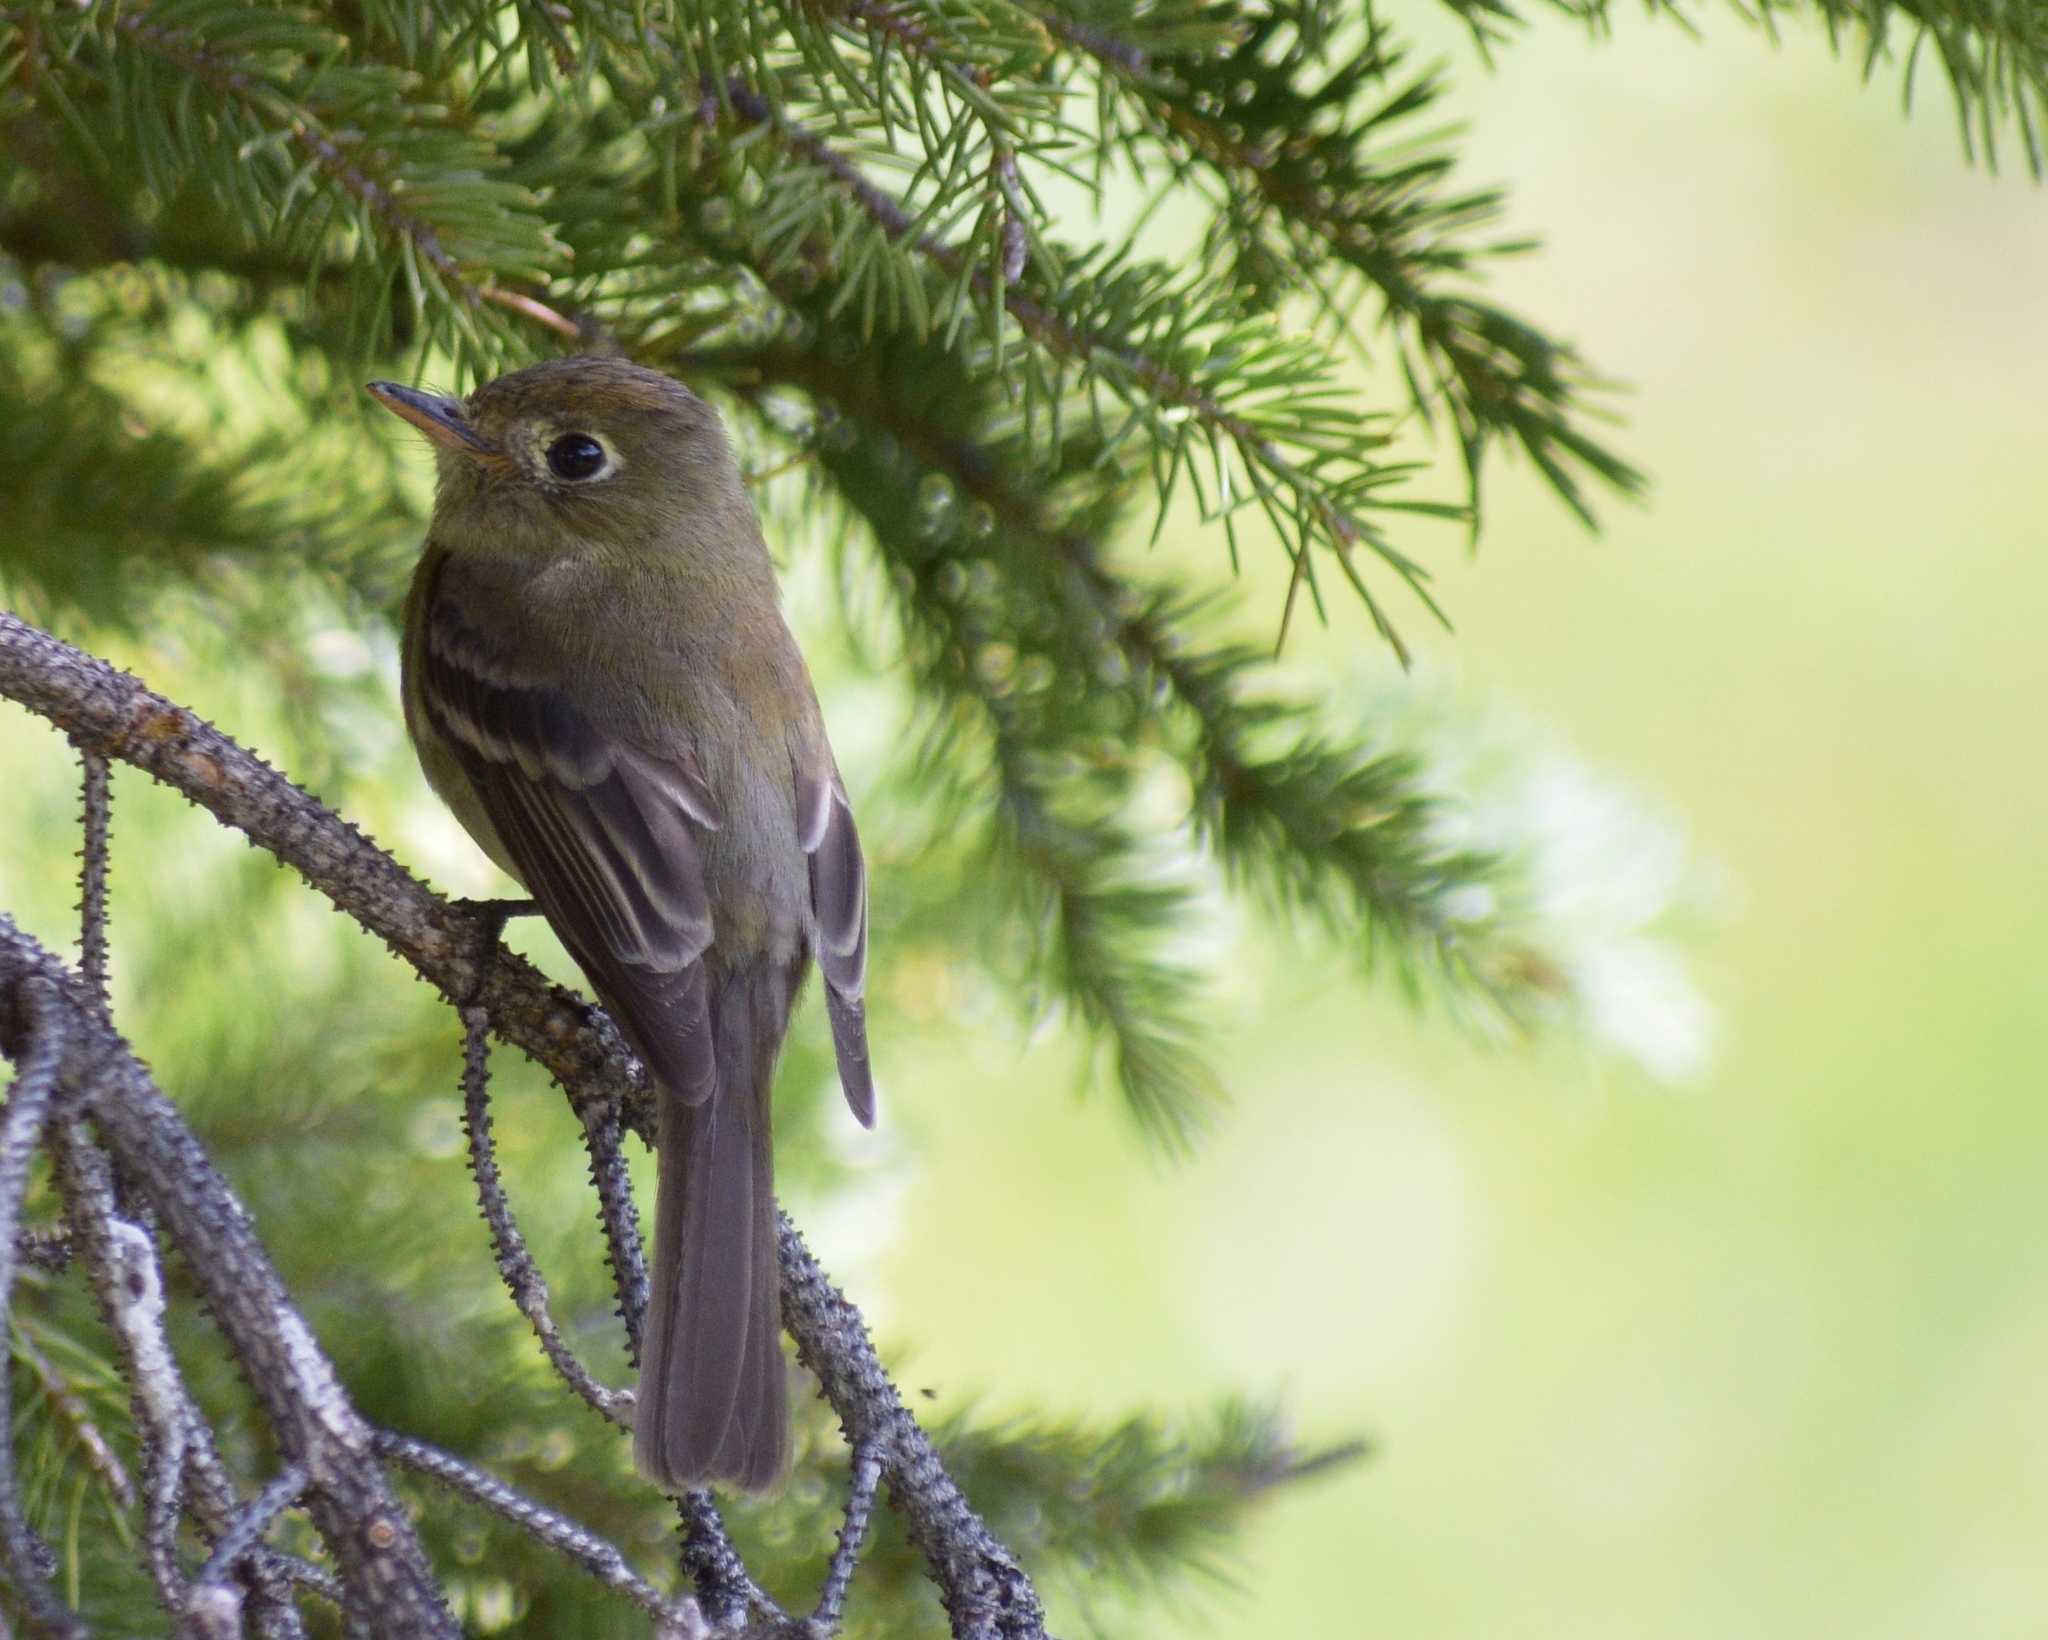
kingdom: Animalia
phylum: Chordata
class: Aves
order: Passeriformes
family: Tyrannidae
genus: Empidonax
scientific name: Empidonax difficilis
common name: Pacific-slope flycatcher
